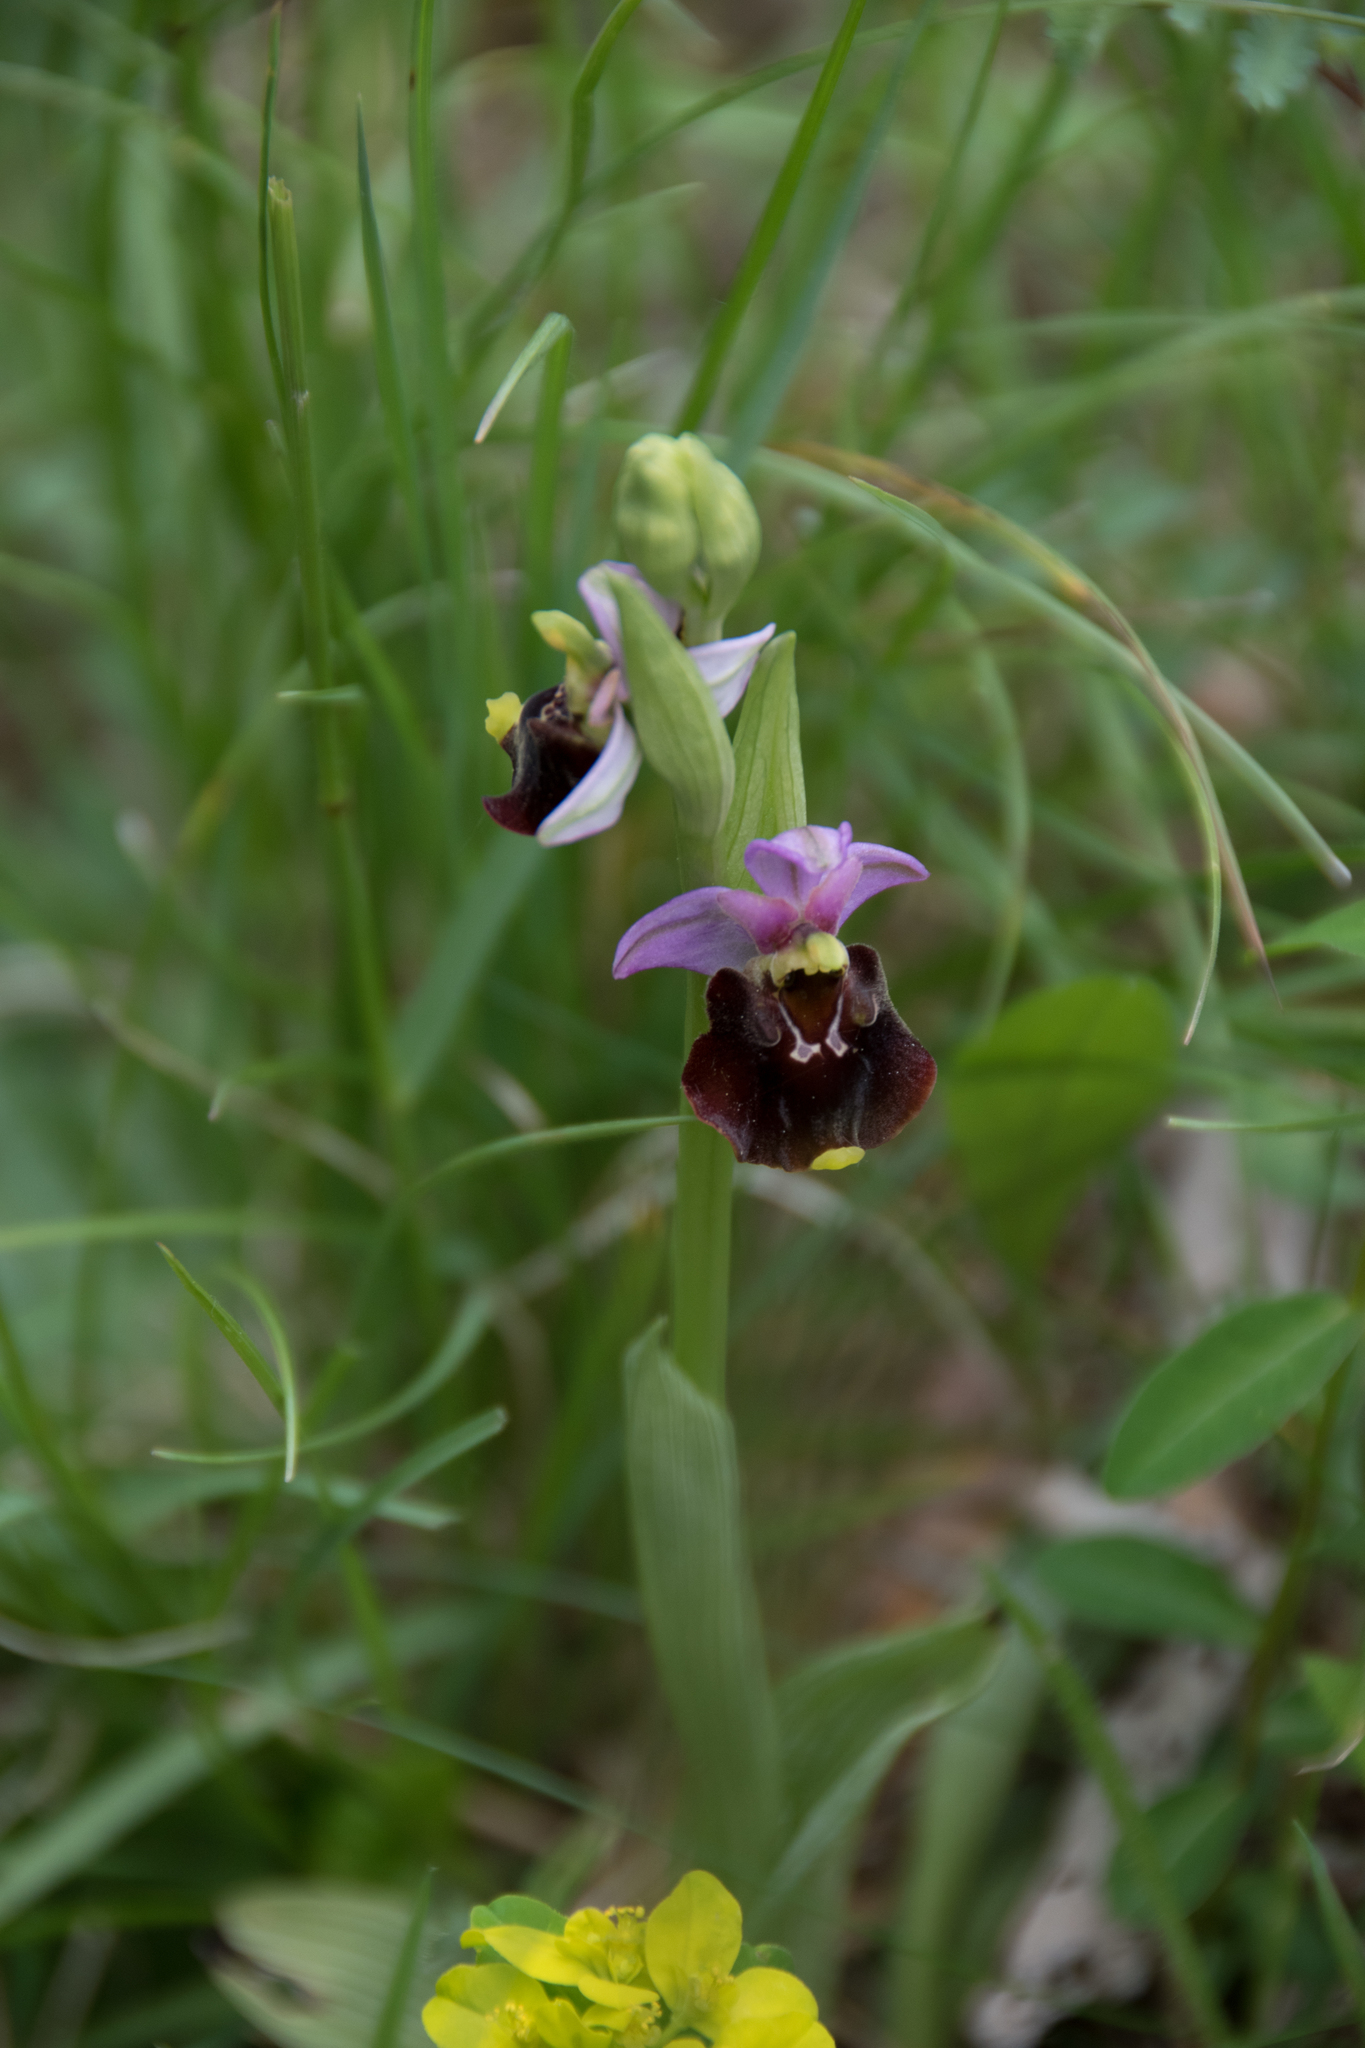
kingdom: Plantae
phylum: Tracheophyta
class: Liliopsida
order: Asparagales
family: Orchidaceae
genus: Ophrys
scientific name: Ophrys holosericea
